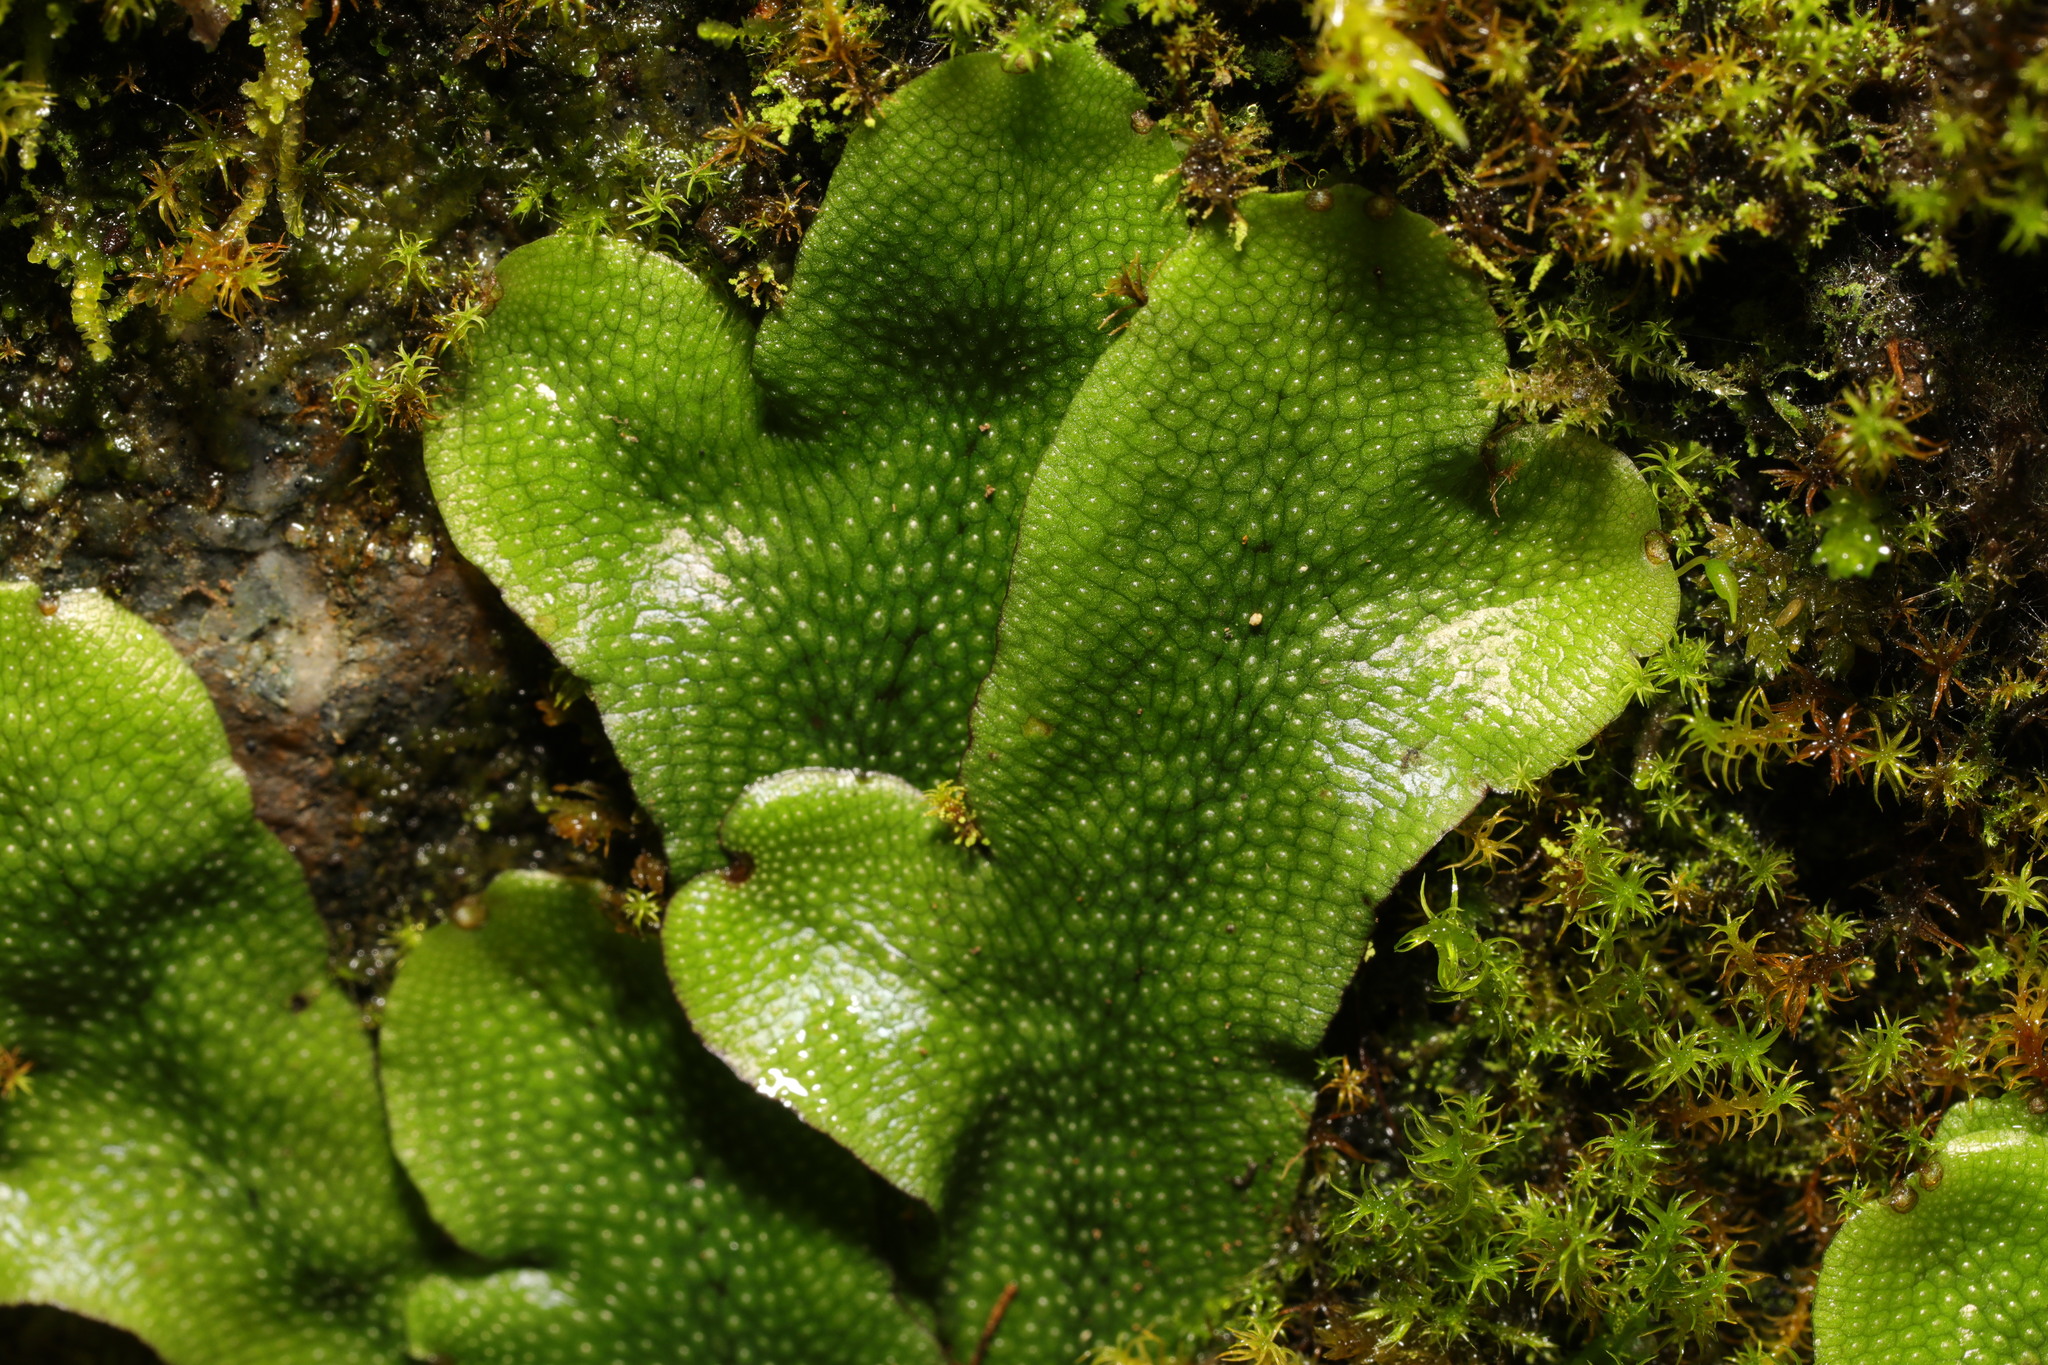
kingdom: Plantae
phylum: Marchantiophyta
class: Marchantiopsida
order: Marchantiales
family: Conocephalaceae
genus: Conocephalum
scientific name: Conocephalum conicum
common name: Great scented liverwort
